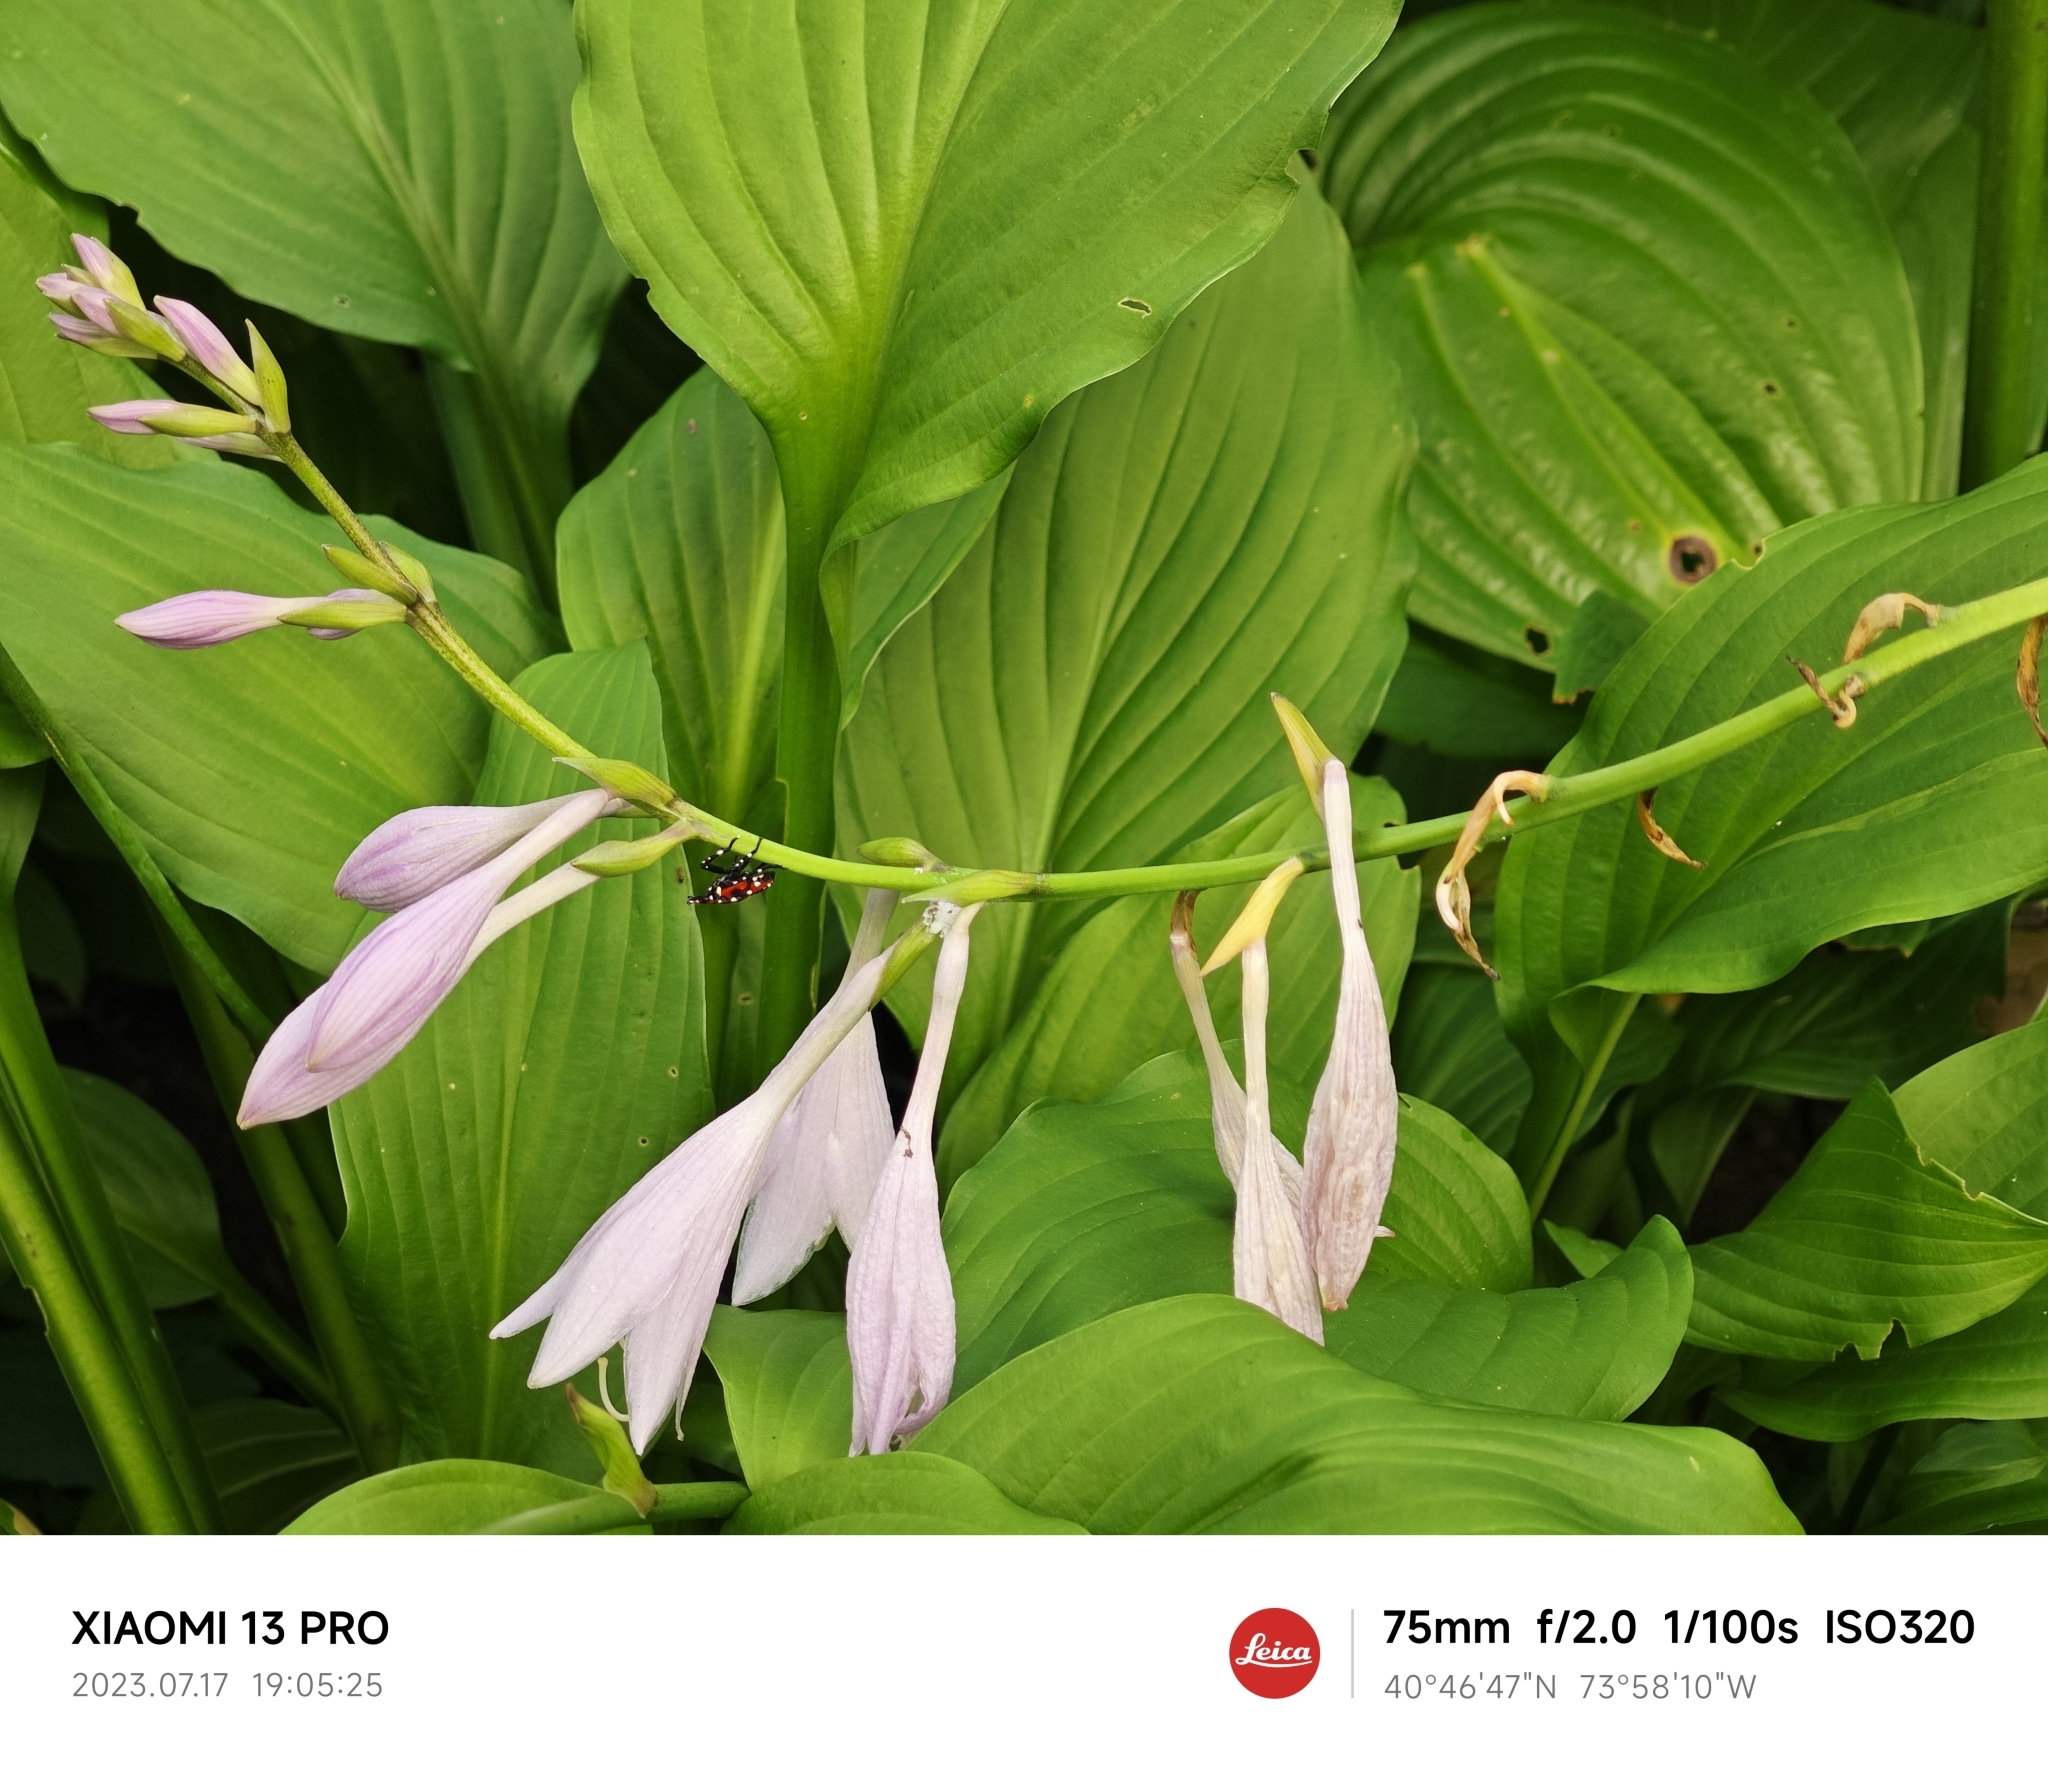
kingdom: Animalia
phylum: Arthropoda
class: Insecta
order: Hemiptera
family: Fulgoridae
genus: Lycorma
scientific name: Lycorma delicatula
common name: Spotted lanternfly
